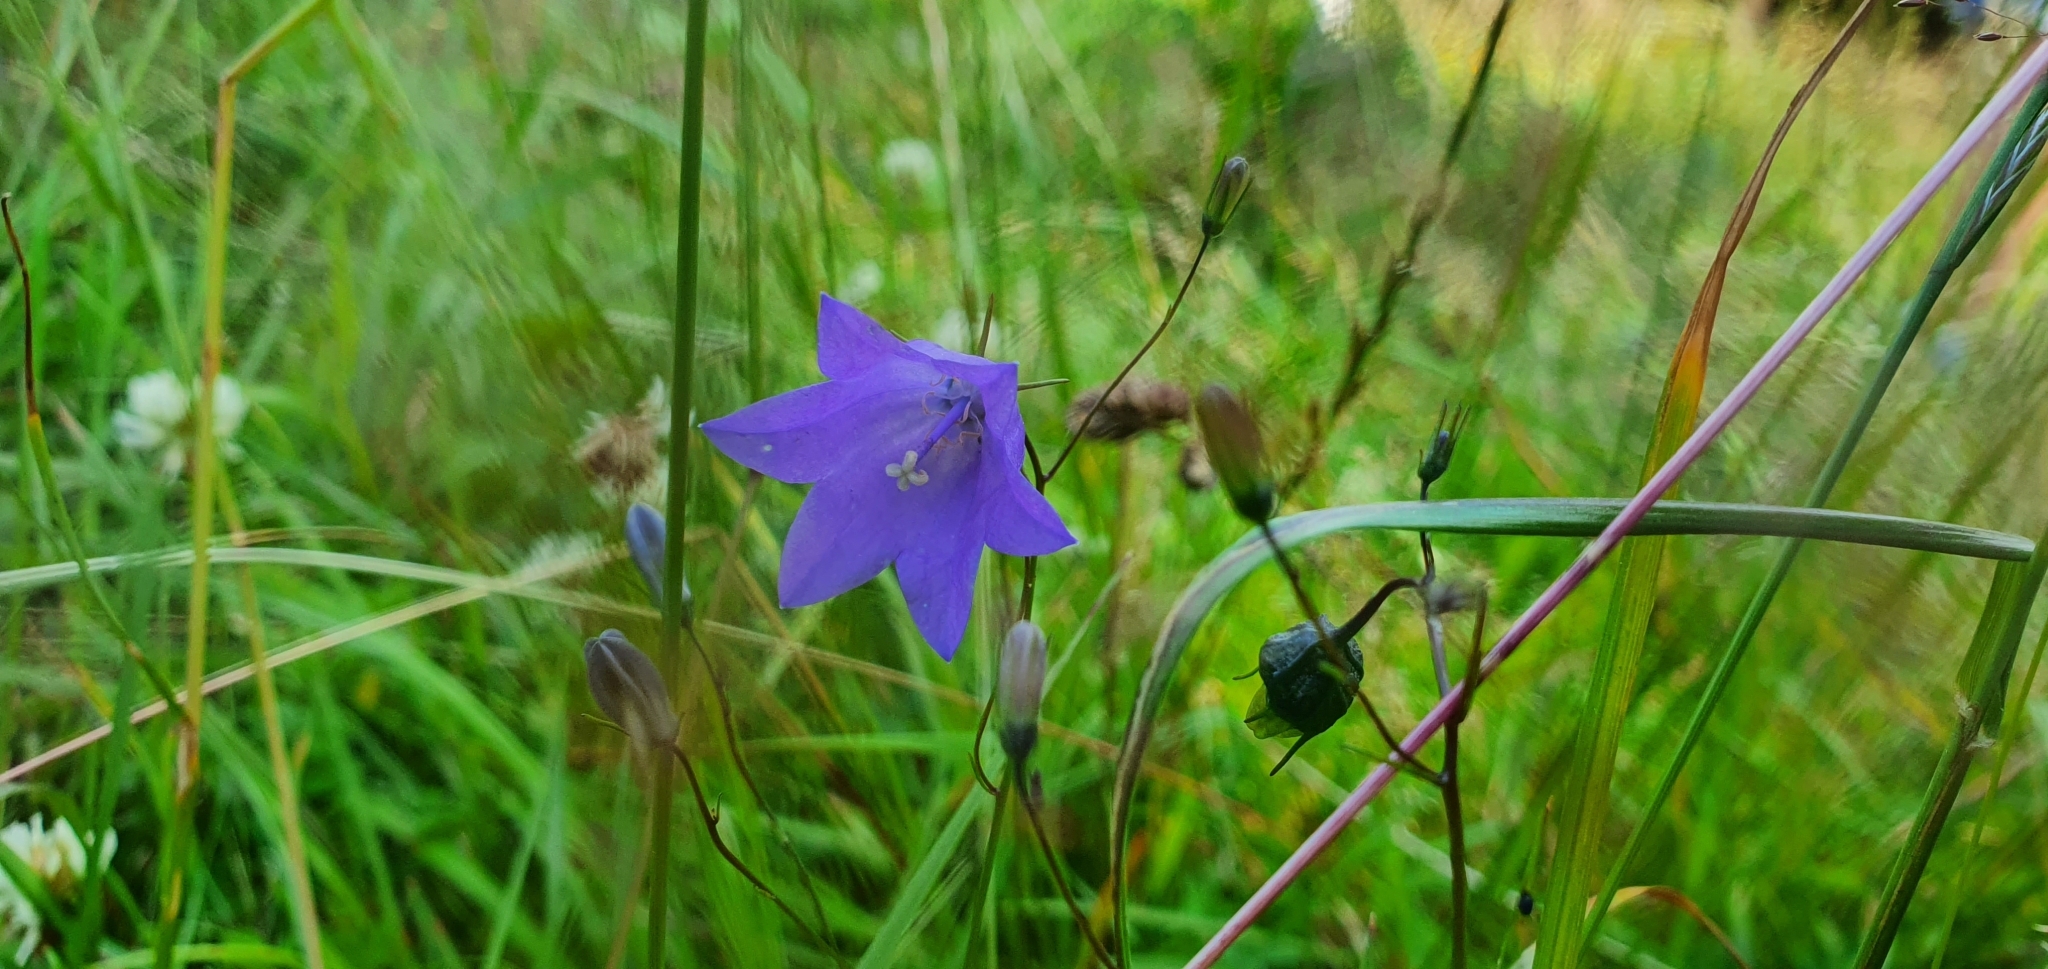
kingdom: Plantae
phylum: Tracheophyta
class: Magnoliopsida
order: Asterales
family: Campanulaceae
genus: Campanula
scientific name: Campanula rotundifolia
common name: Harebell
